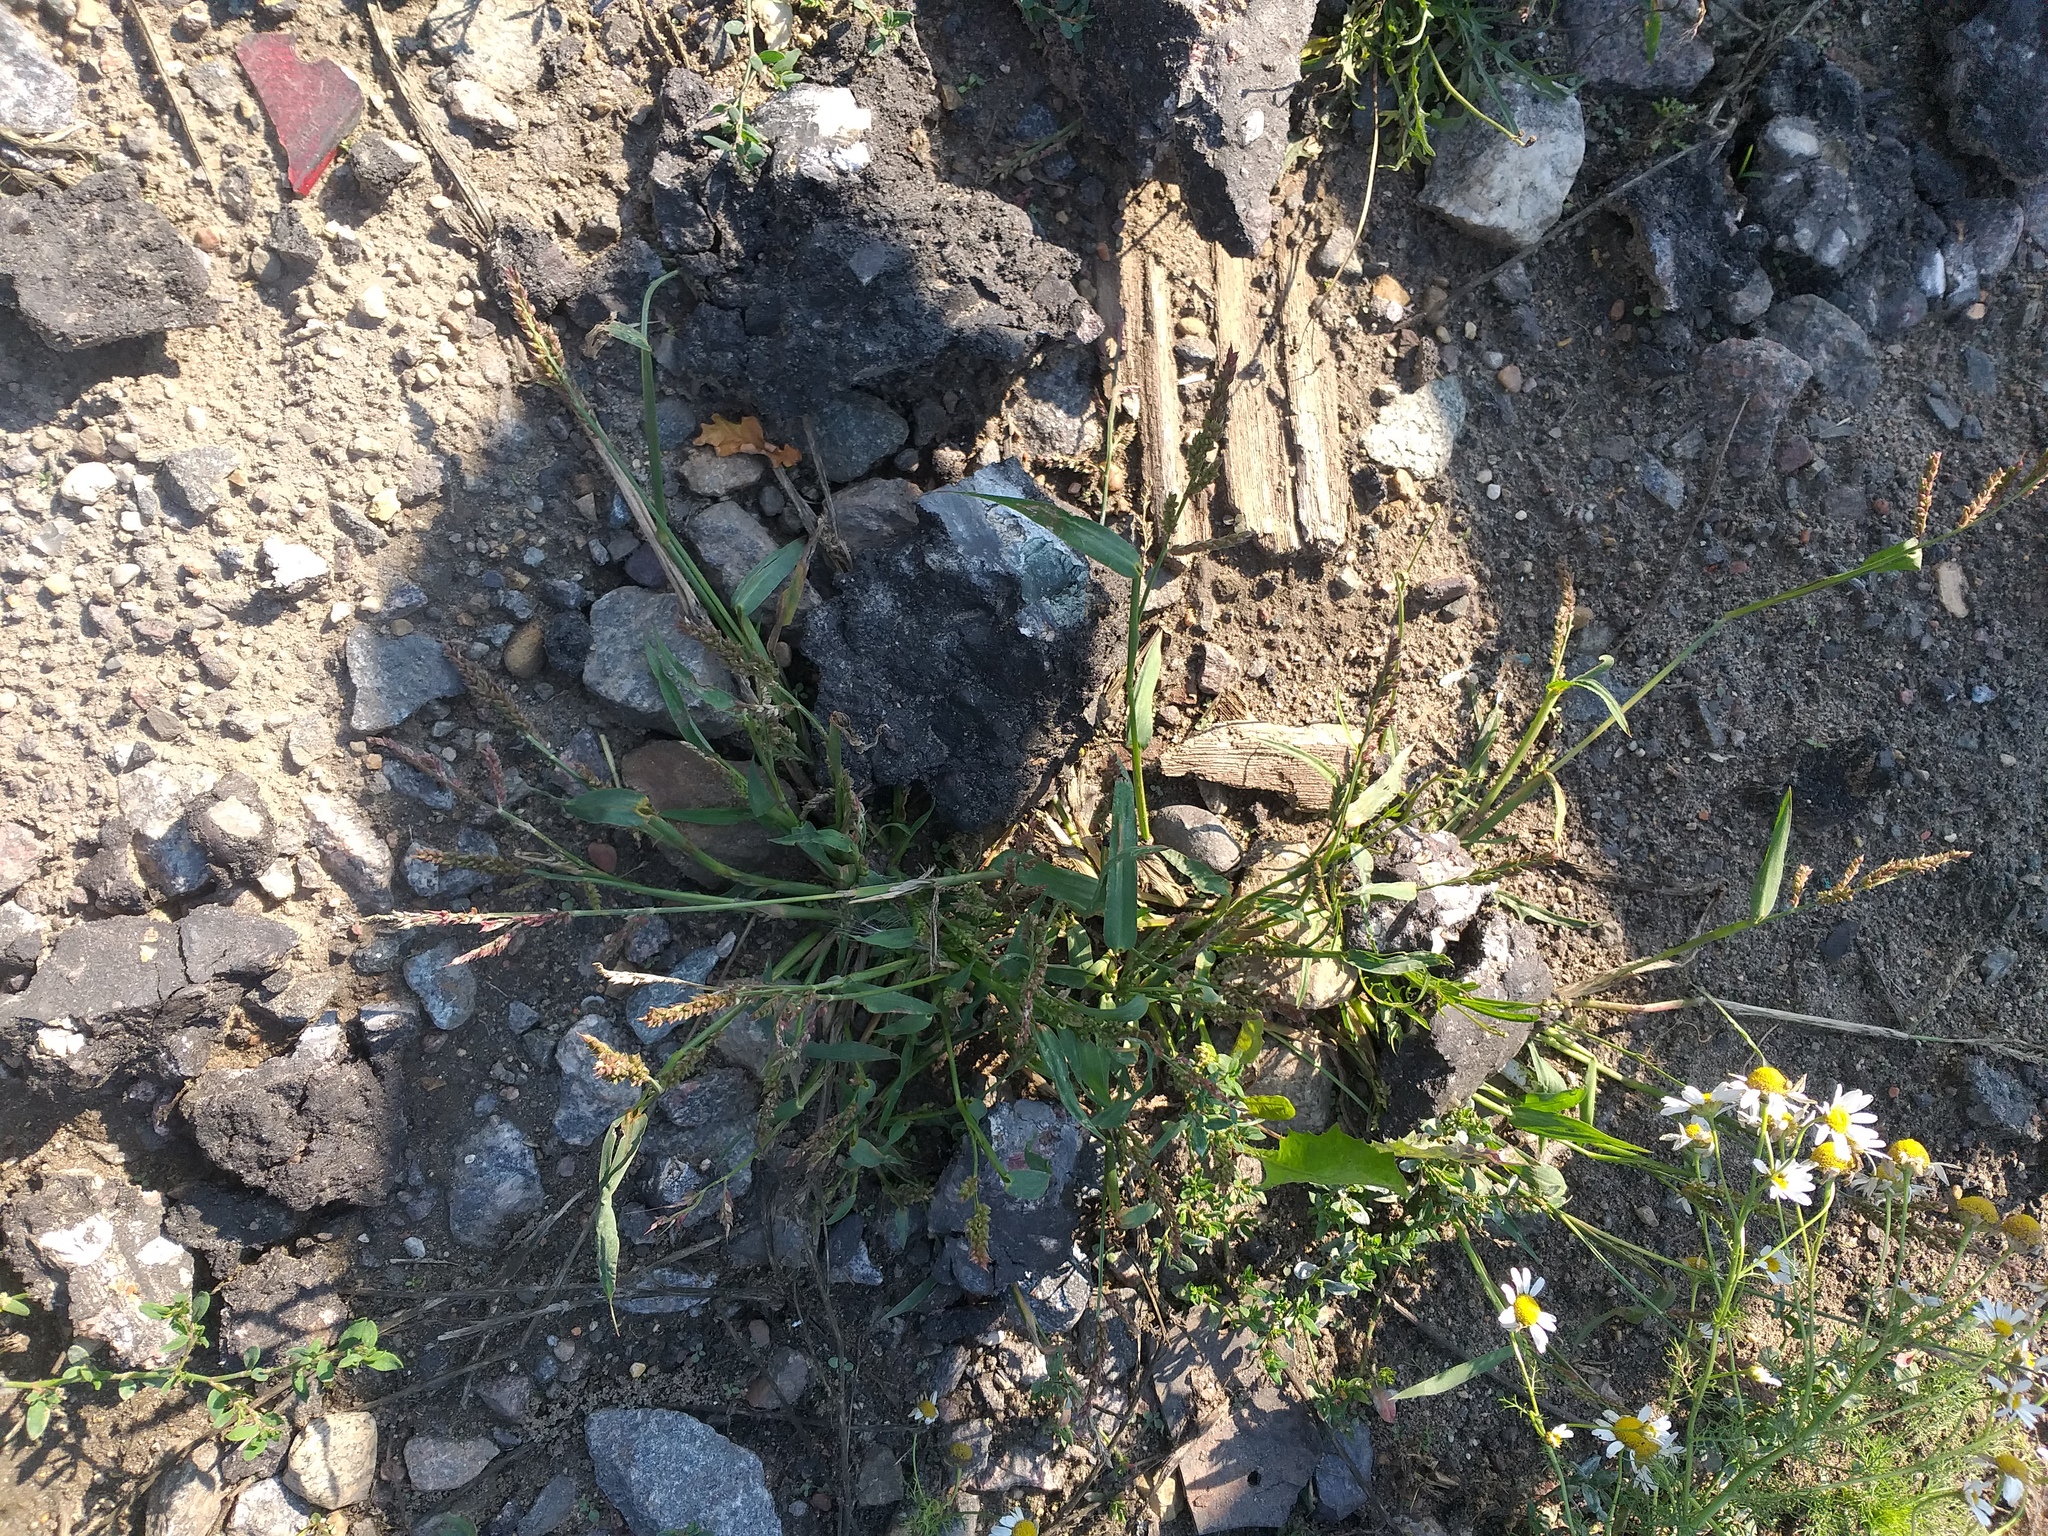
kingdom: Plantae
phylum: Tracheophyta
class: Liliopsida
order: Poales
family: Poaceae
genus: Echinochloa
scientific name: Echinochloa crus-galli
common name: Cockspur
